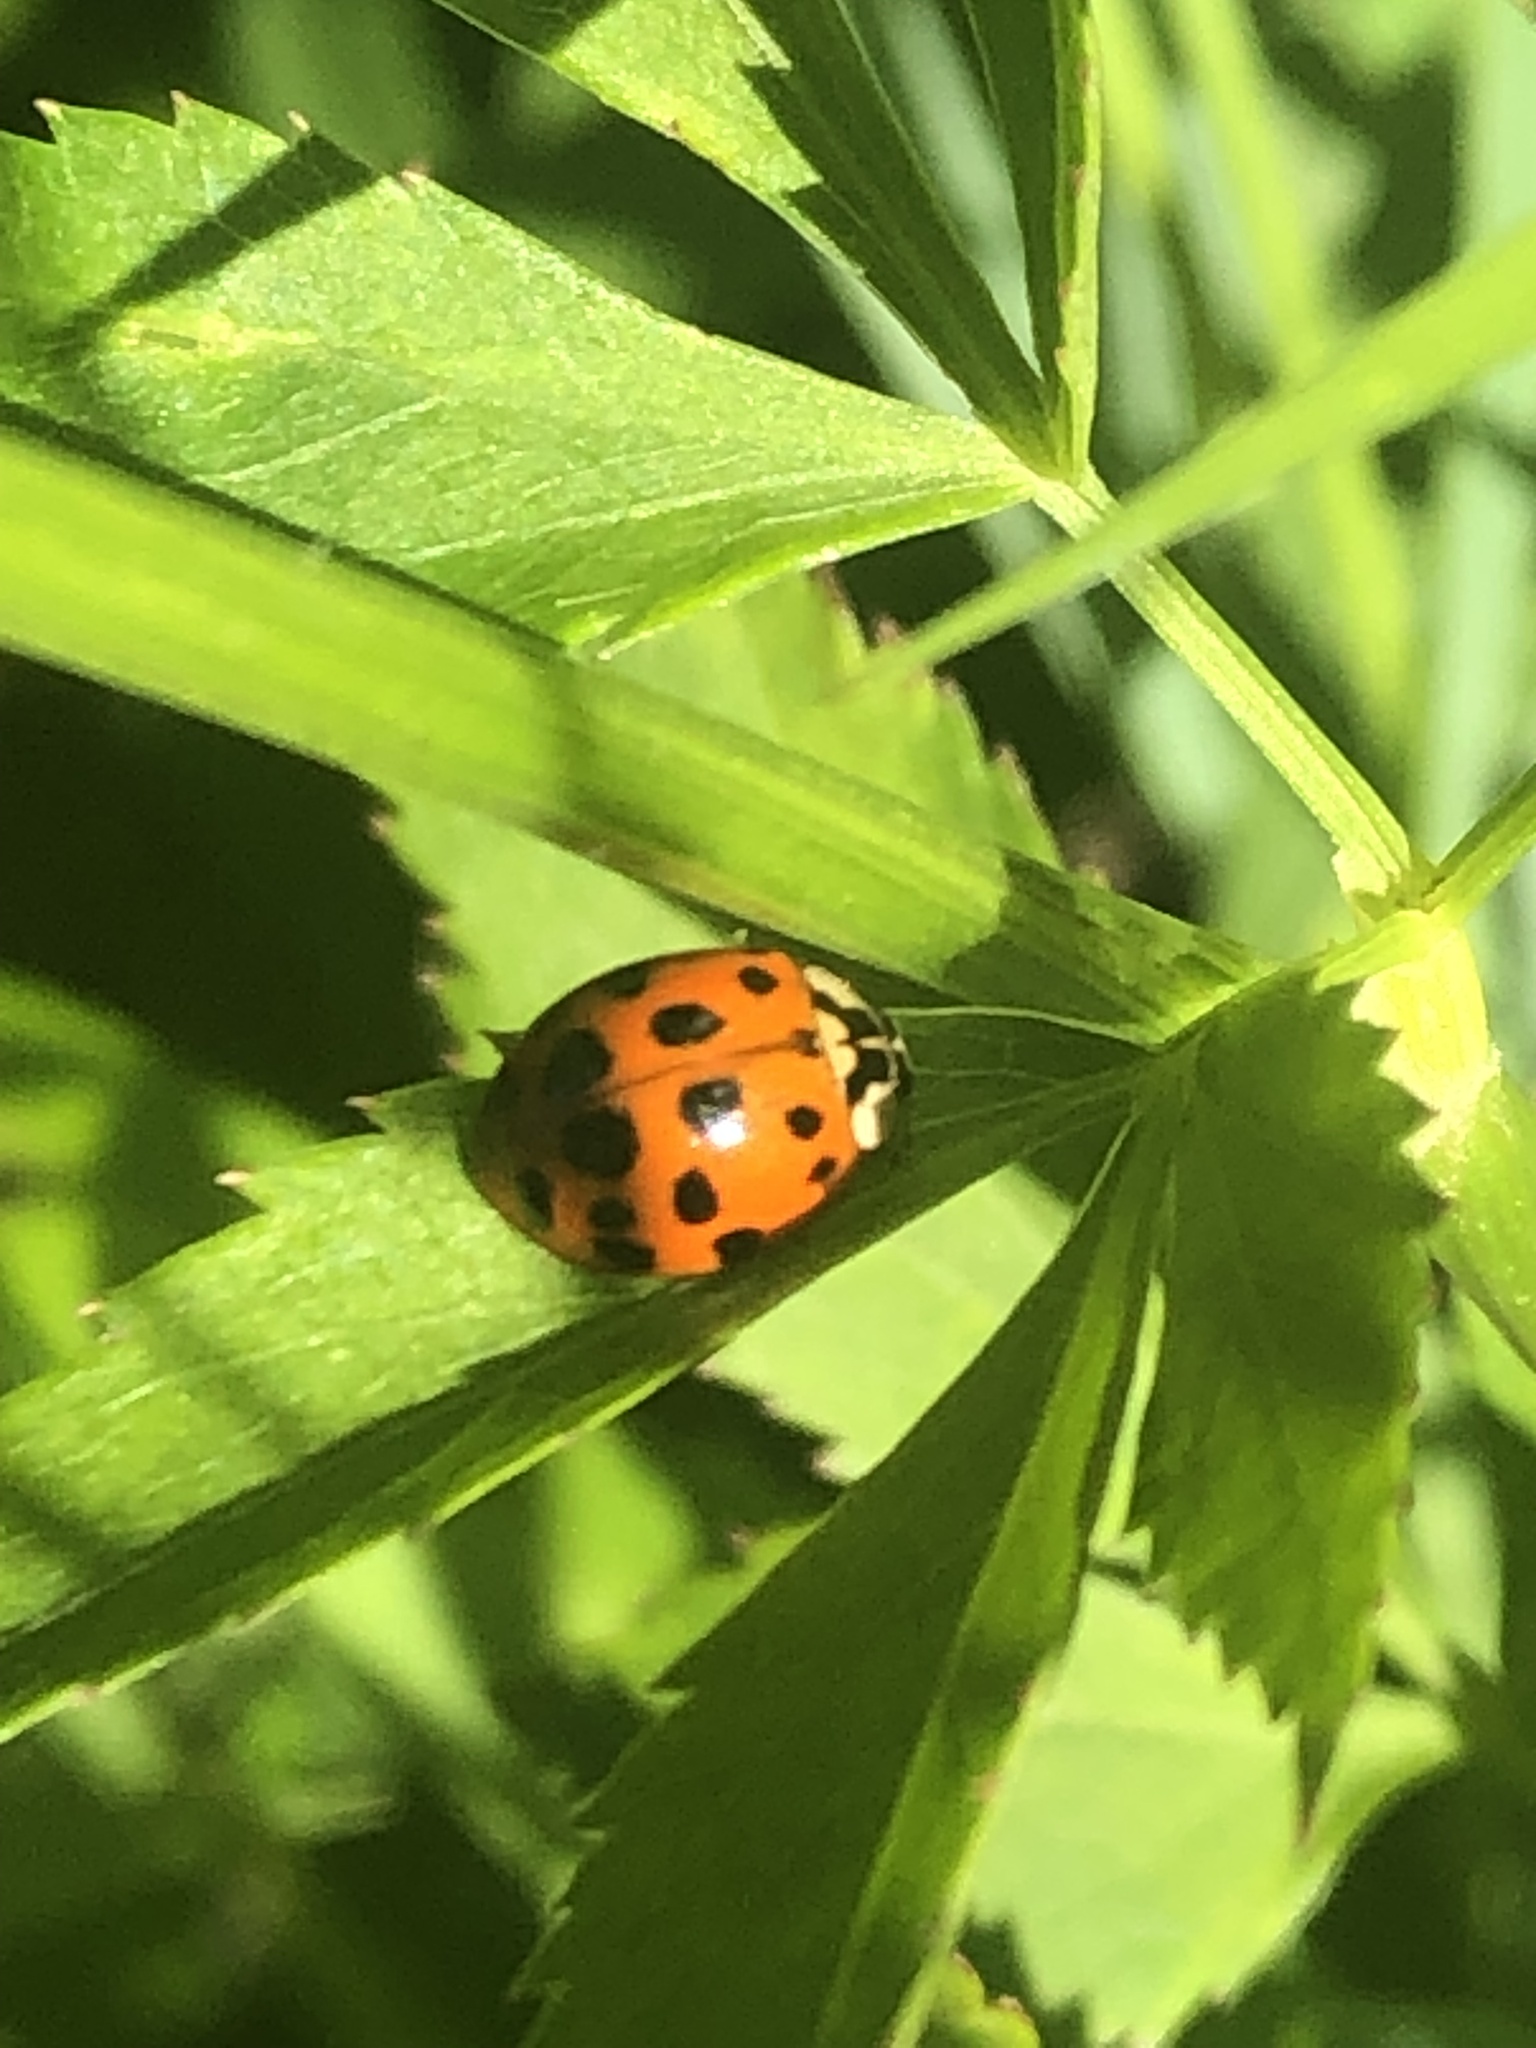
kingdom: Animalia
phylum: Arthropoda
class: Insecta
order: Coleoptera
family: Coccinellidae
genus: Harmonia
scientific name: Harmonia axyridis
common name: Harlequin ladybird
